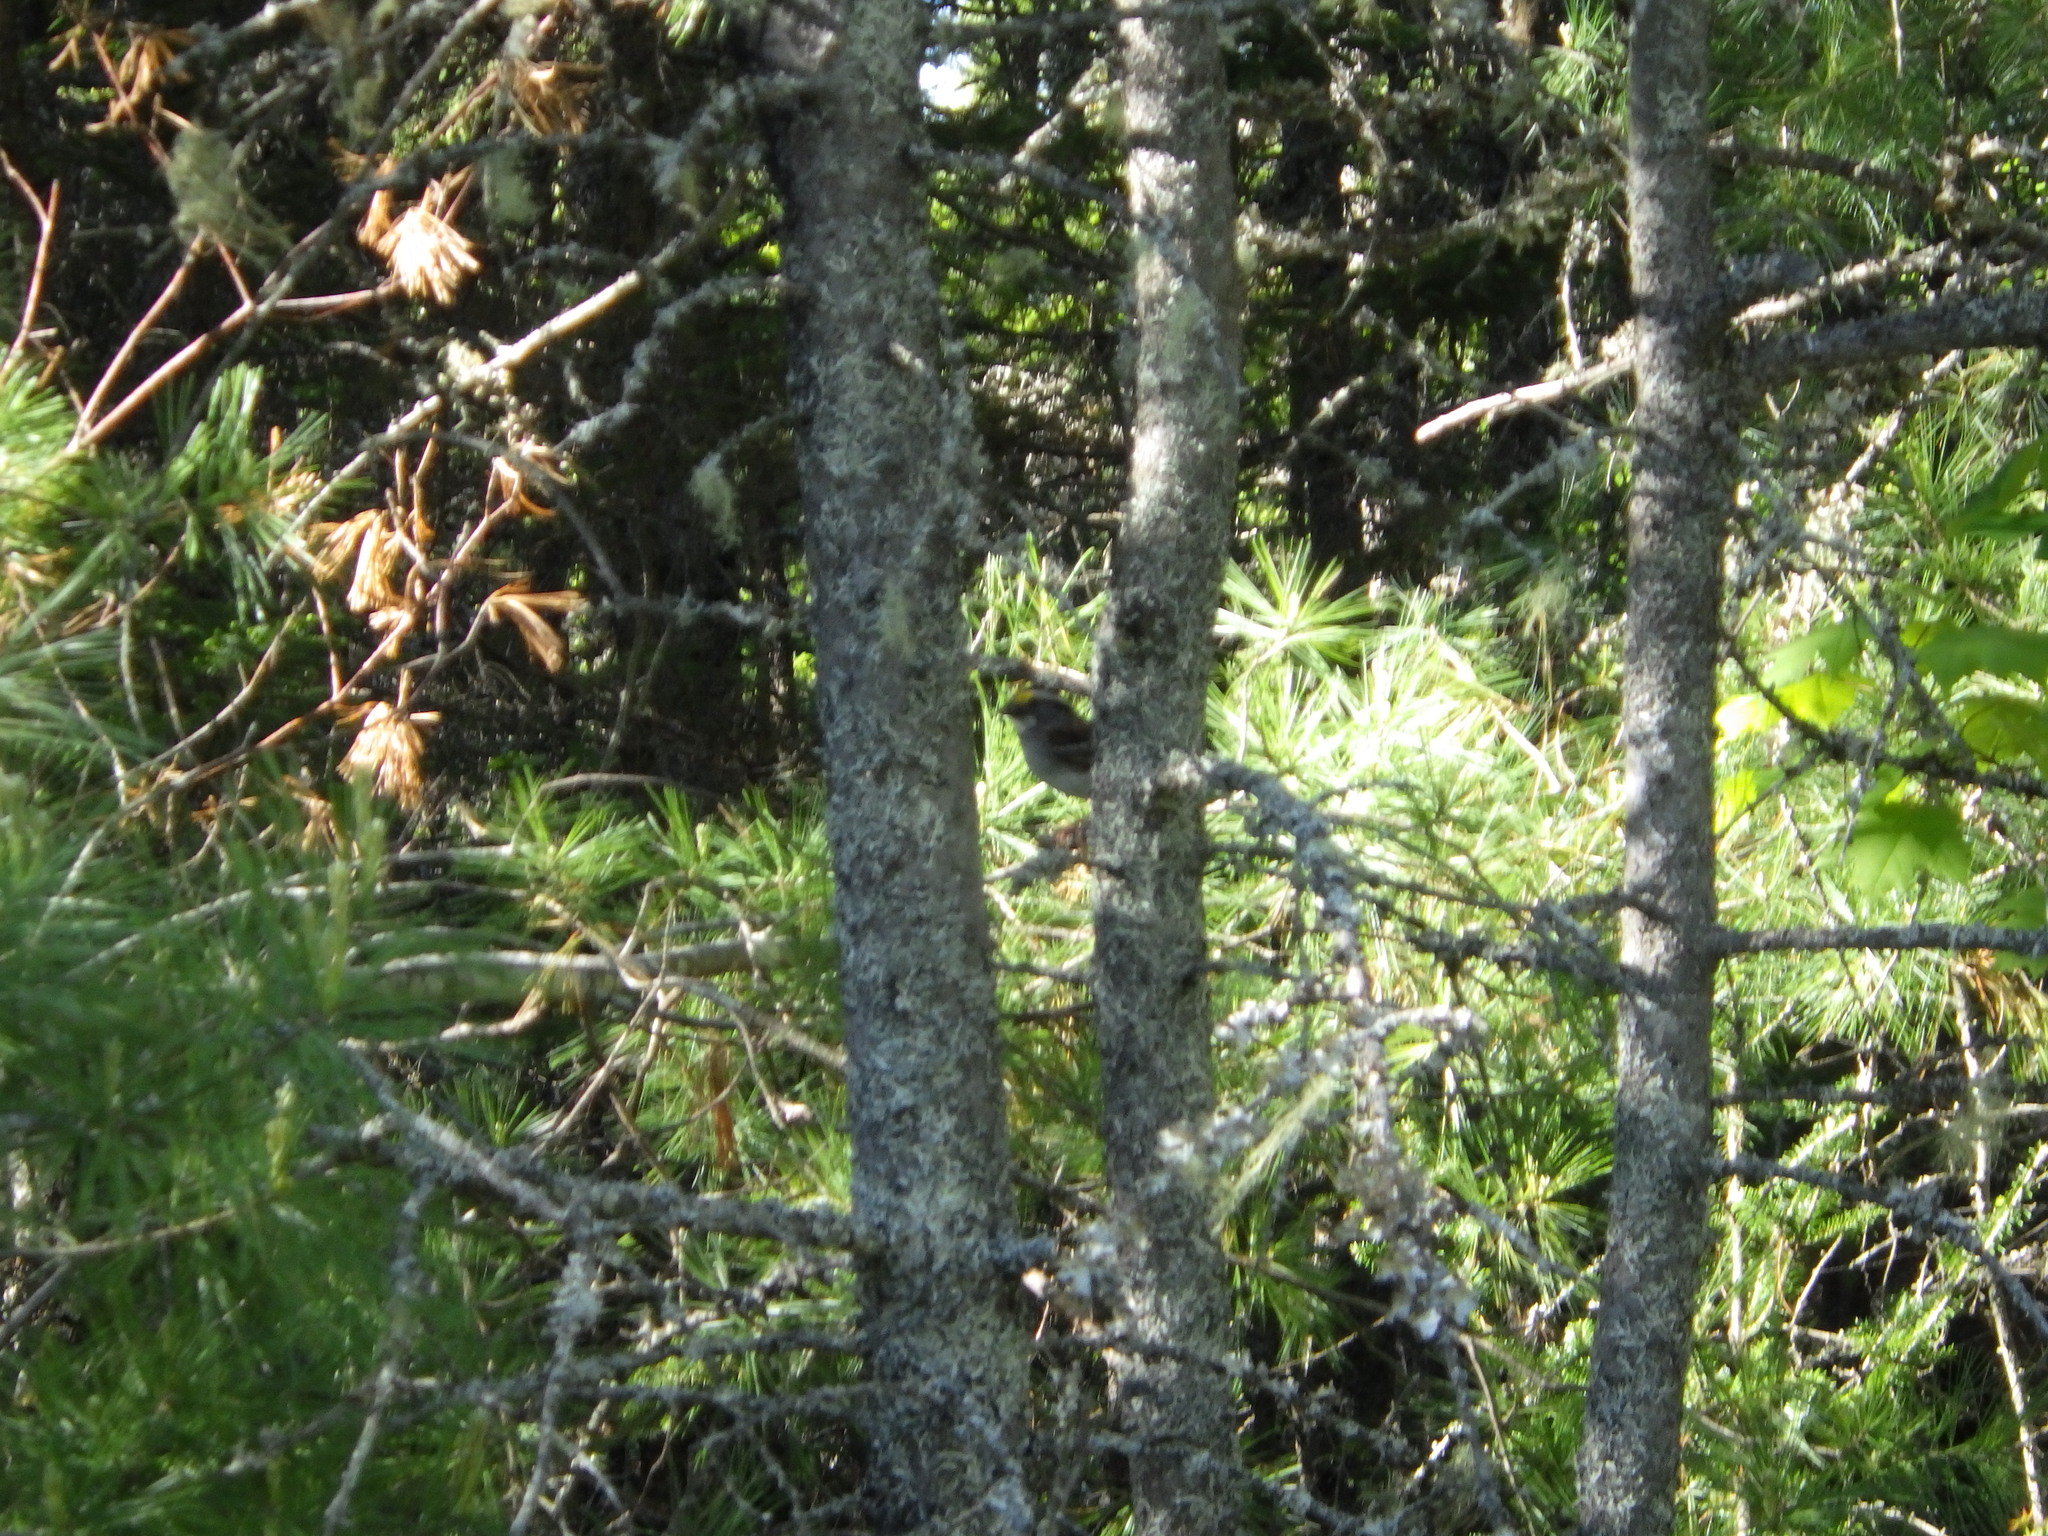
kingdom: Animalia
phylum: Chordata
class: Aves
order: Passeriformes
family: Passerellidae
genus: Zonotrichia
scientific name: Zonotrichia albicollis
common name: White-throated sparrow
